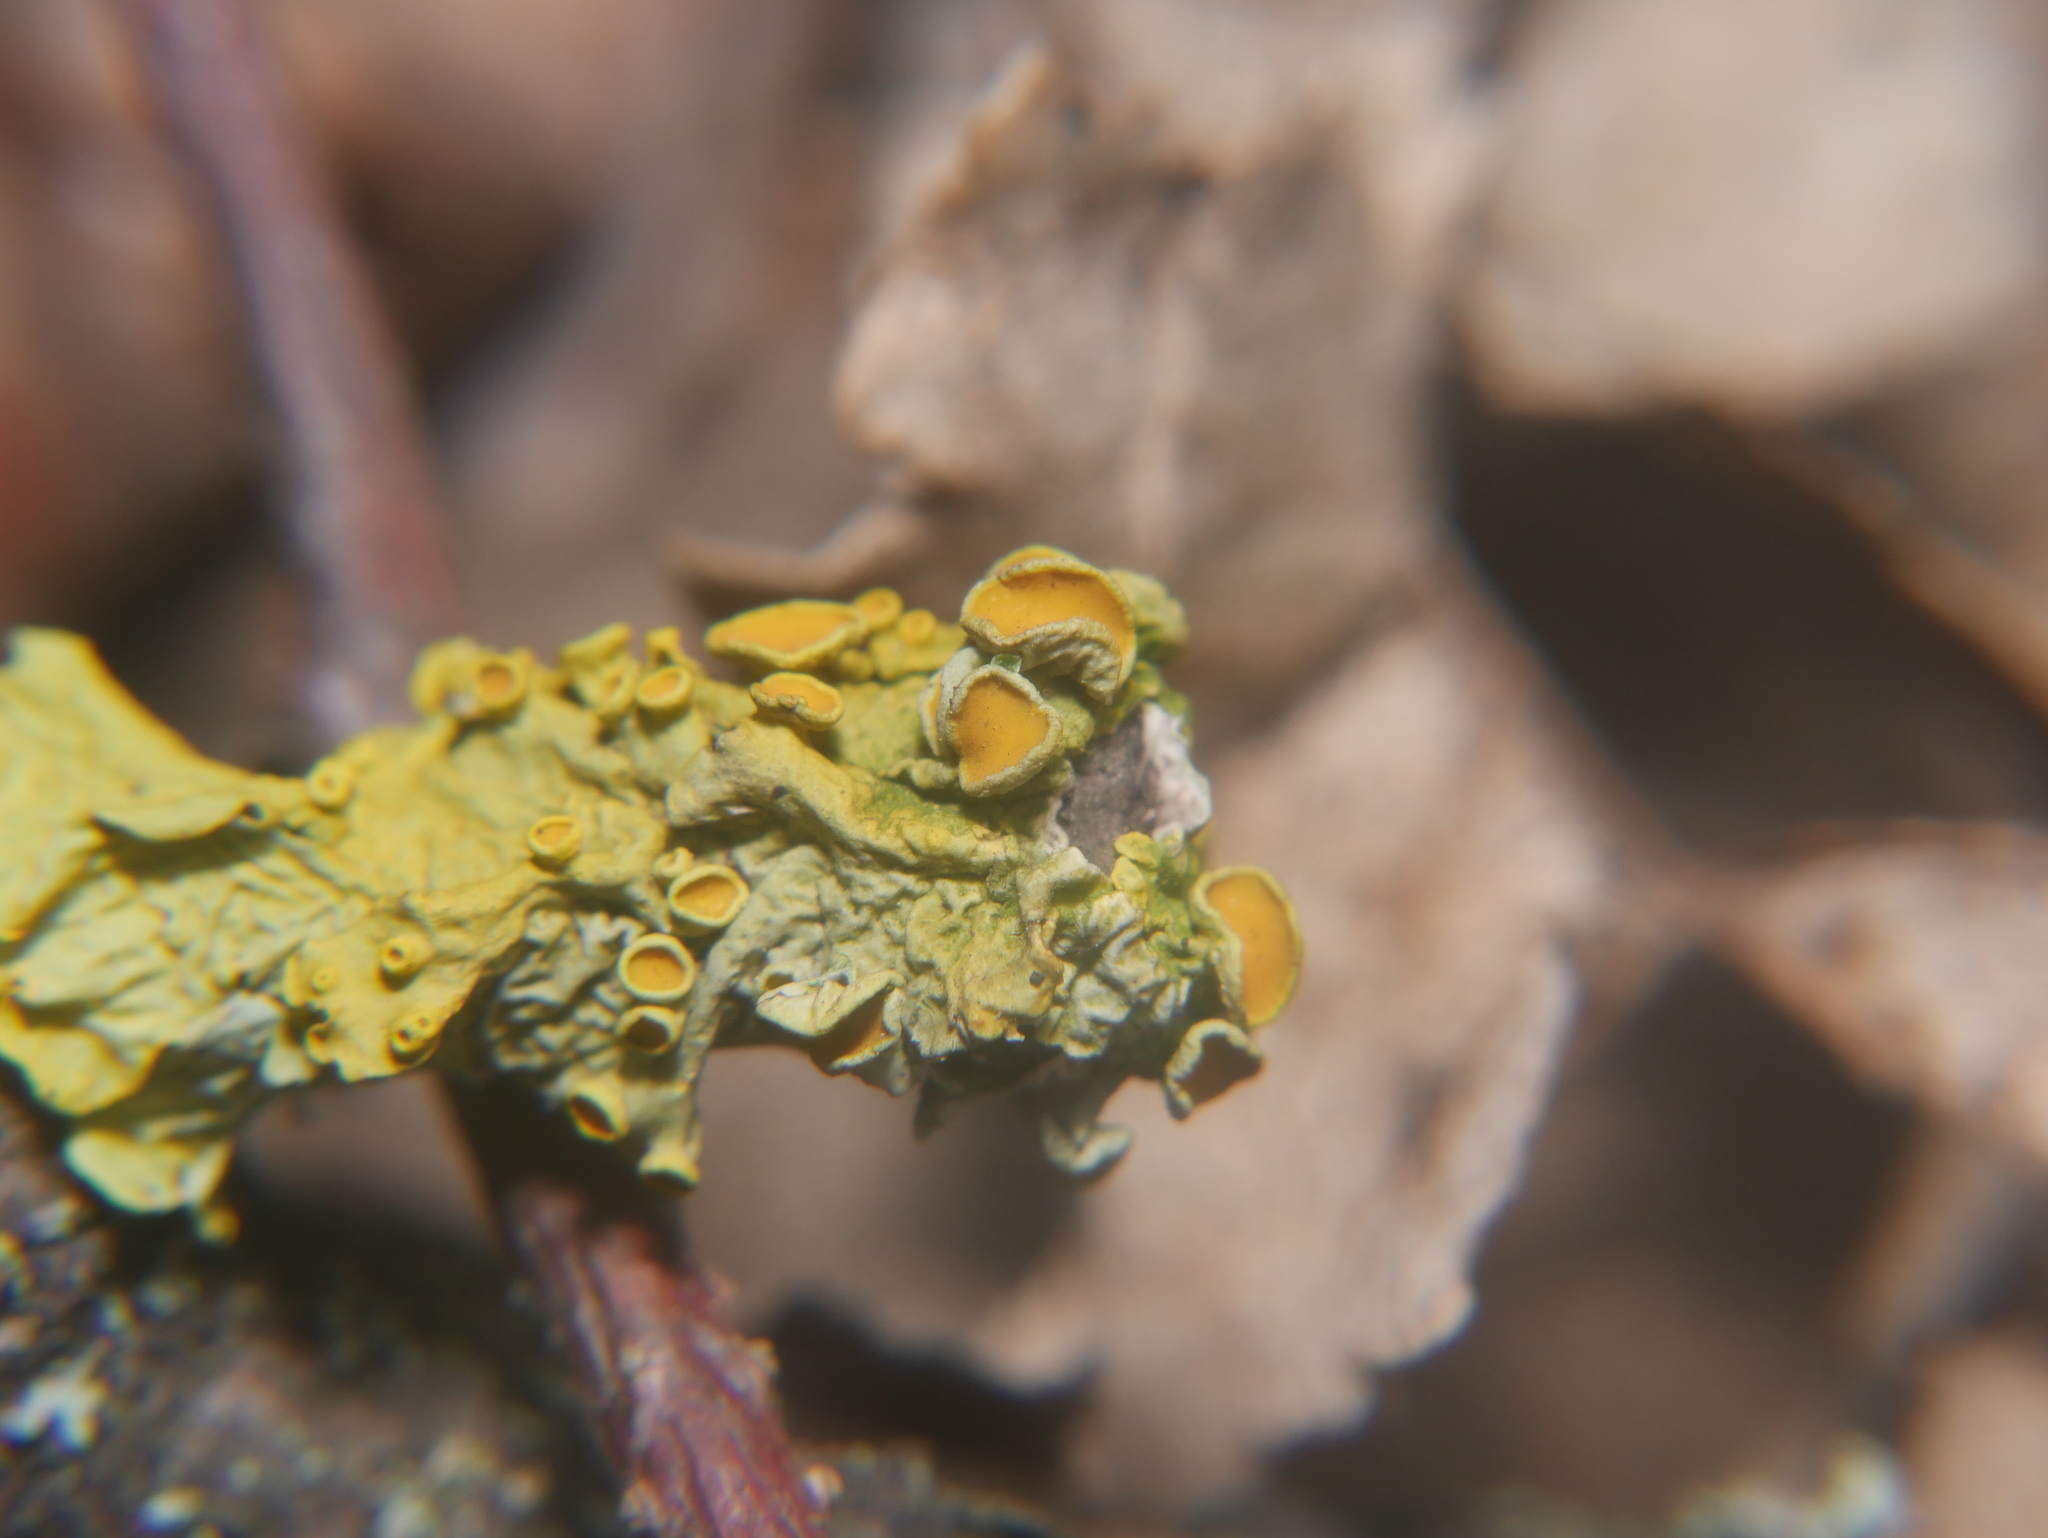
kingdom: Fungi
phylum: Ascomycota
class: Lecanoromycetes
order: Teloschistales
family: Teloschistaceae
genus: Xanthoria
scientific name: Xanthoria parietina
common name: Common orange lichen
